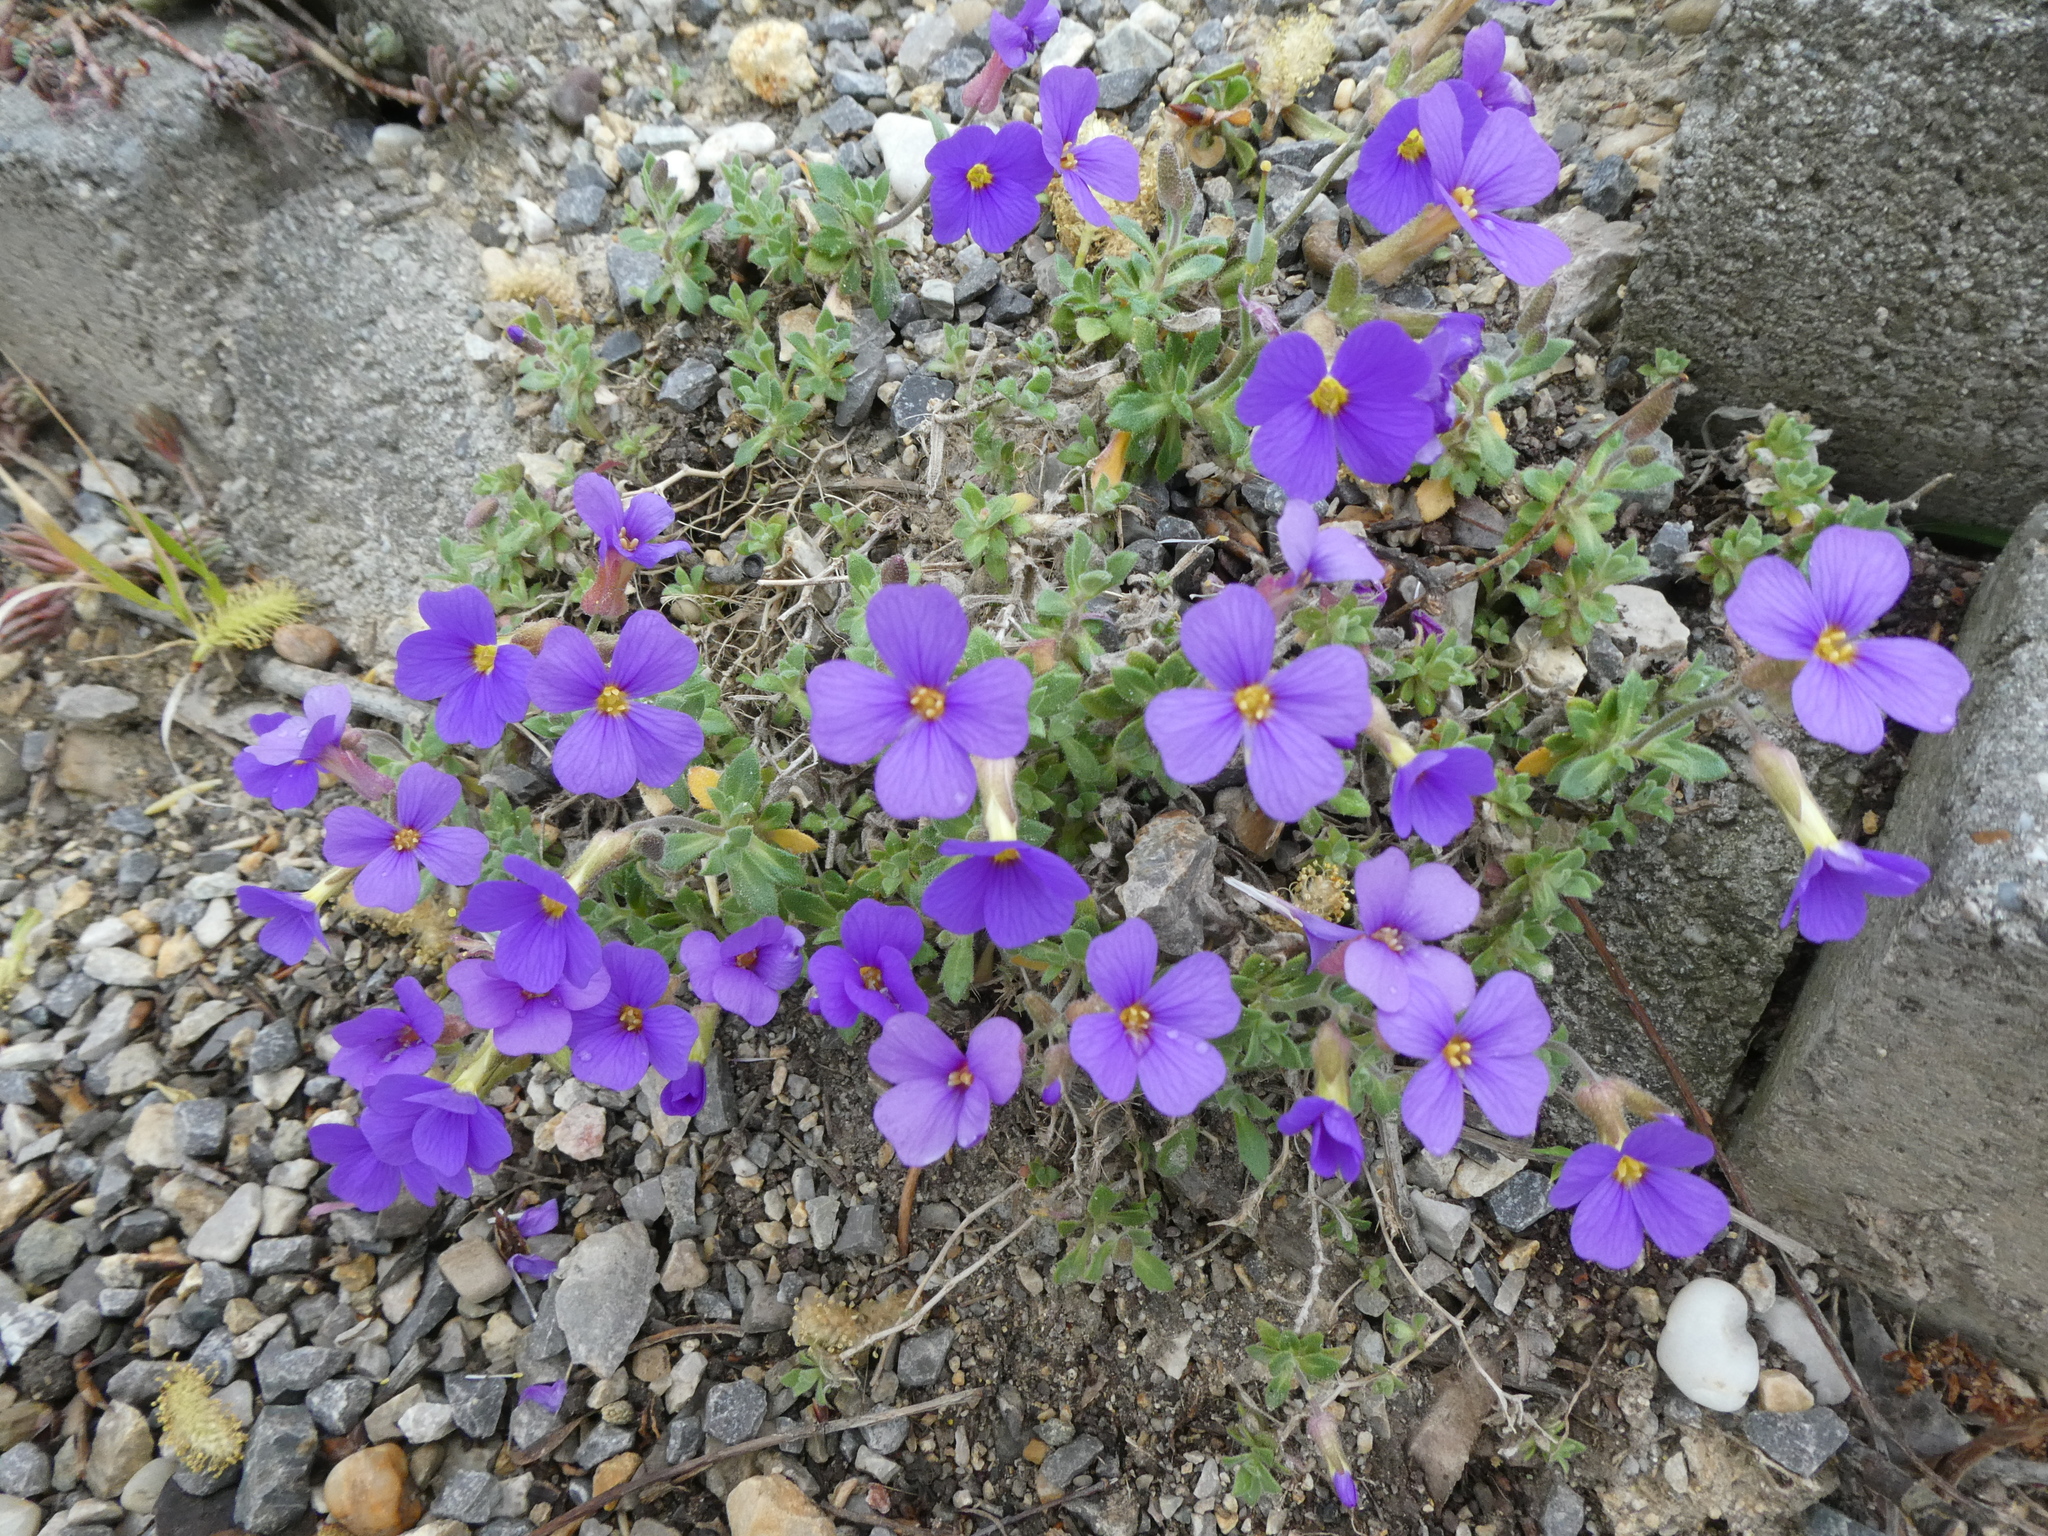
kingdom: Plantae
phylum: Tracheophyta
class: Magnoliopsida
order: Brassicales
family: Brassicaceae
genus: Aubrieta
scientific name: Aubrieta deltoidea
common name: Aubretia
